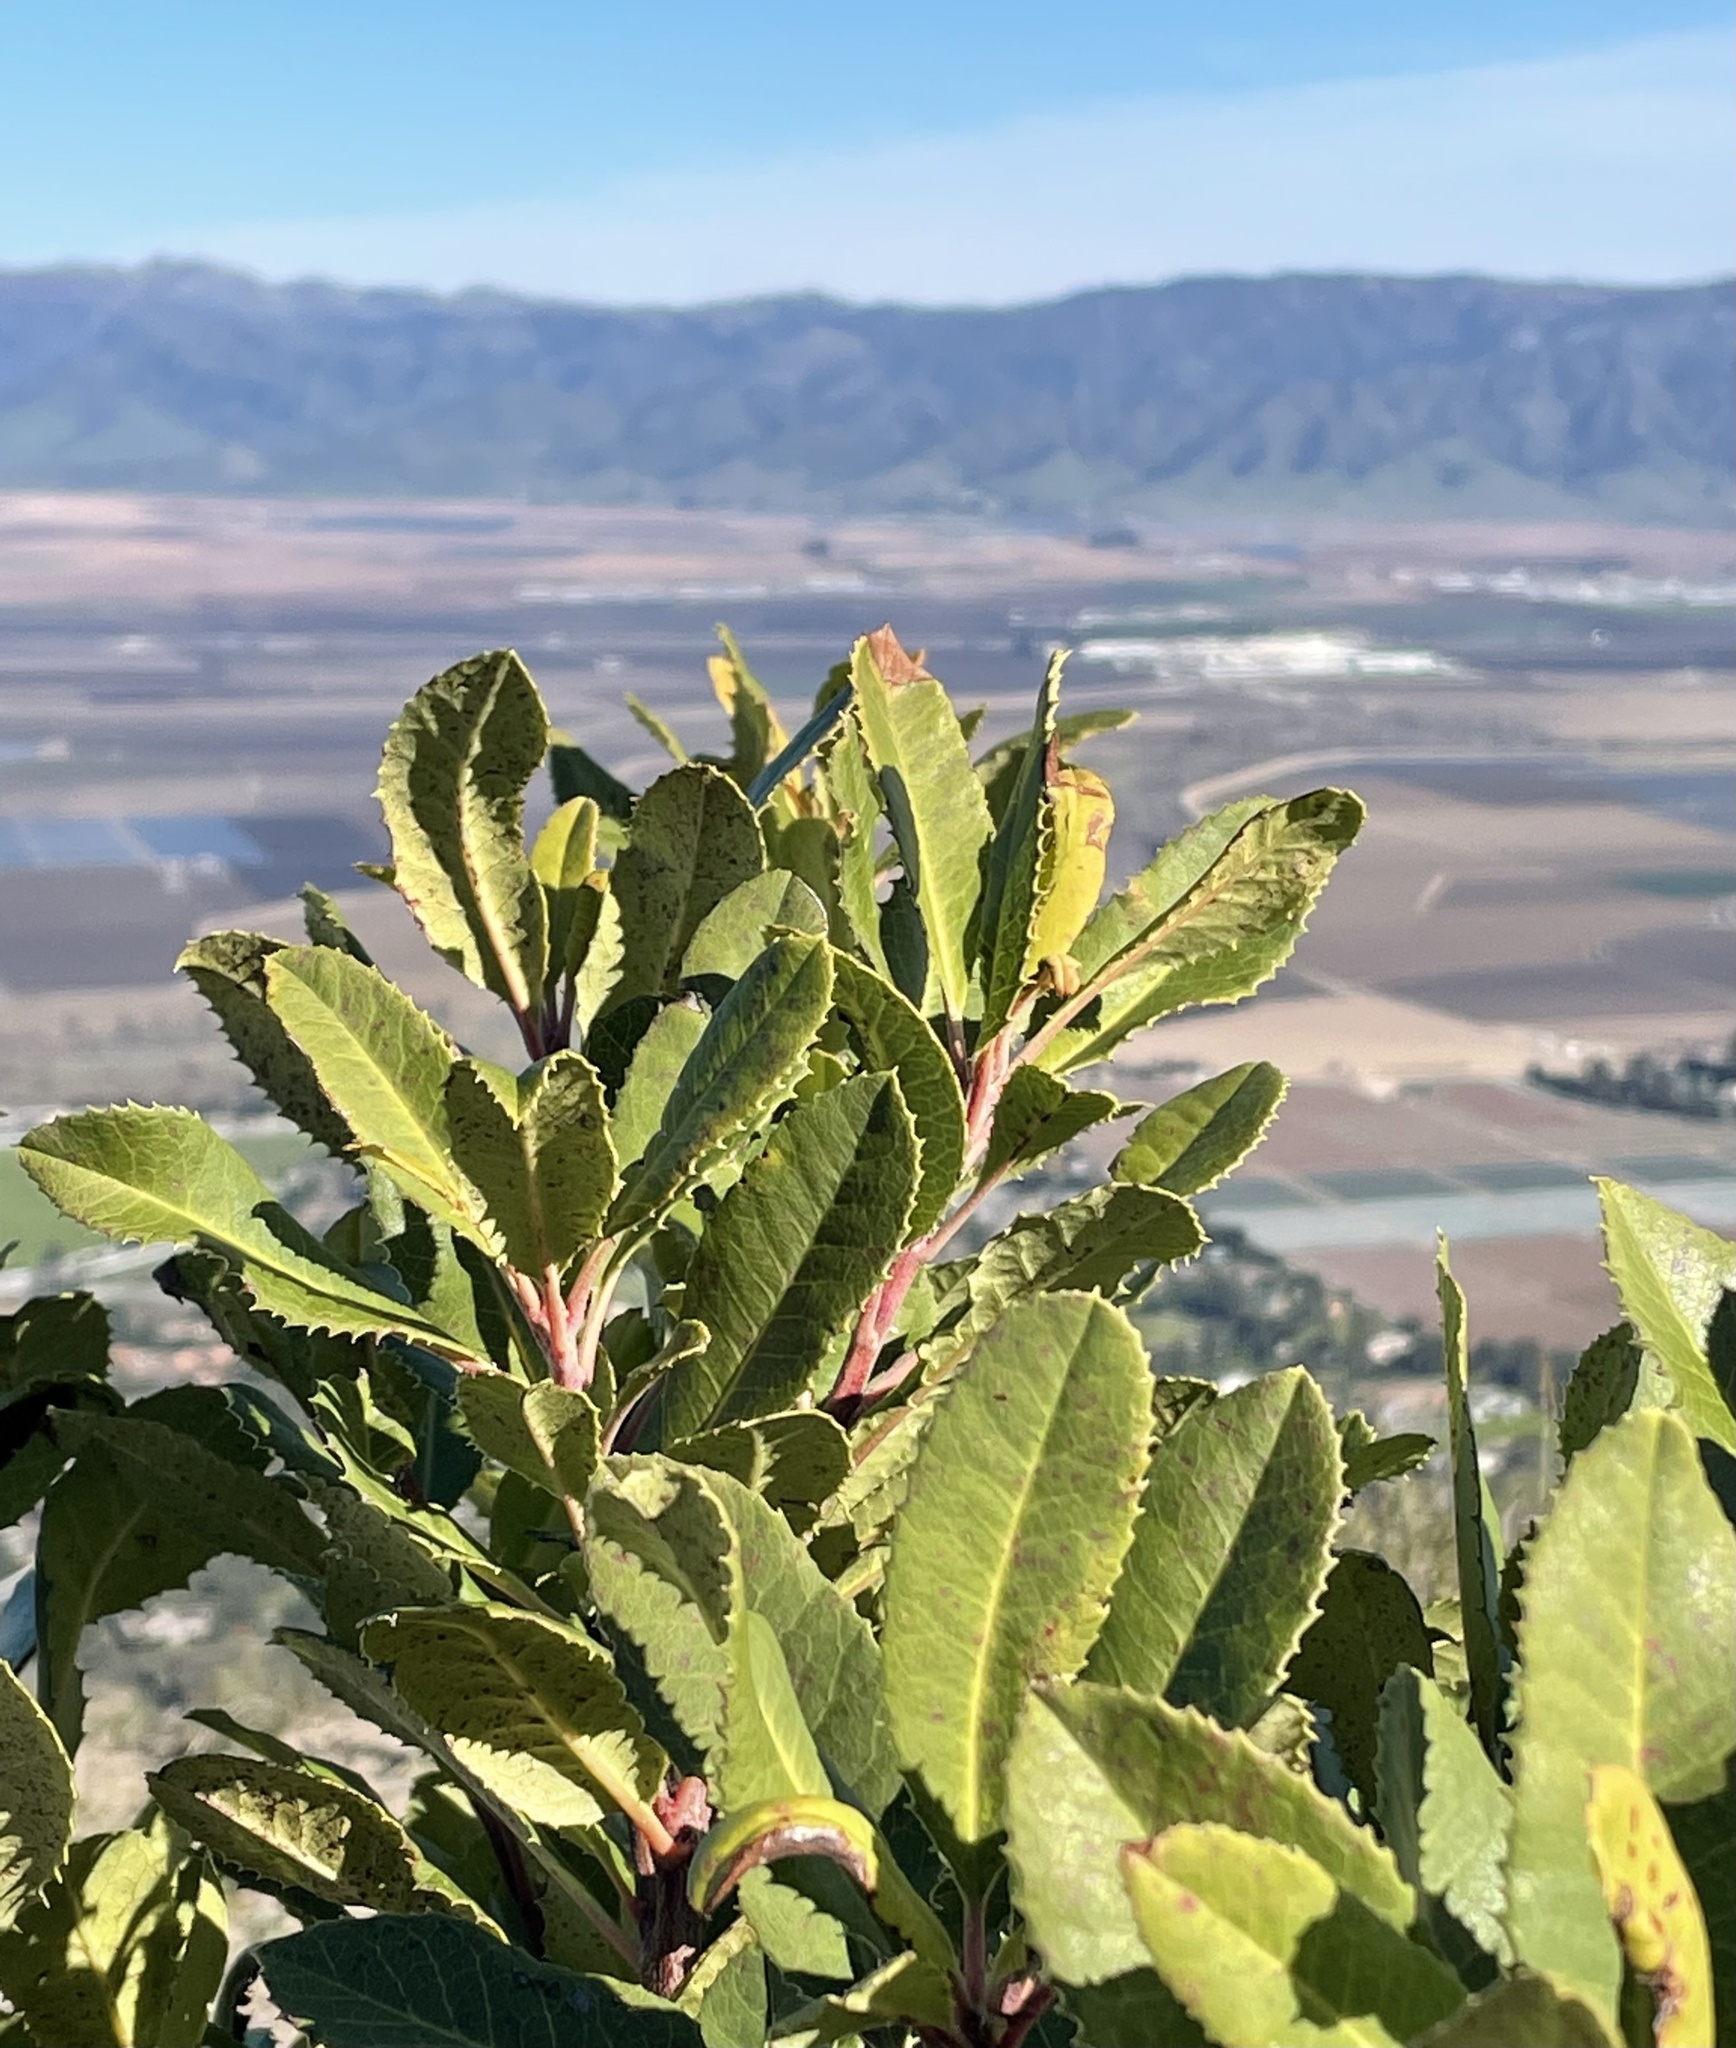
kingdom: Plantae
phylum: Tracheophyta
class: Magnoliopsida
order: Rosales
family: Rosaceae
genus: Heteromeles
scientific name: Heteromeles arbutifolia
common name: California-holly
